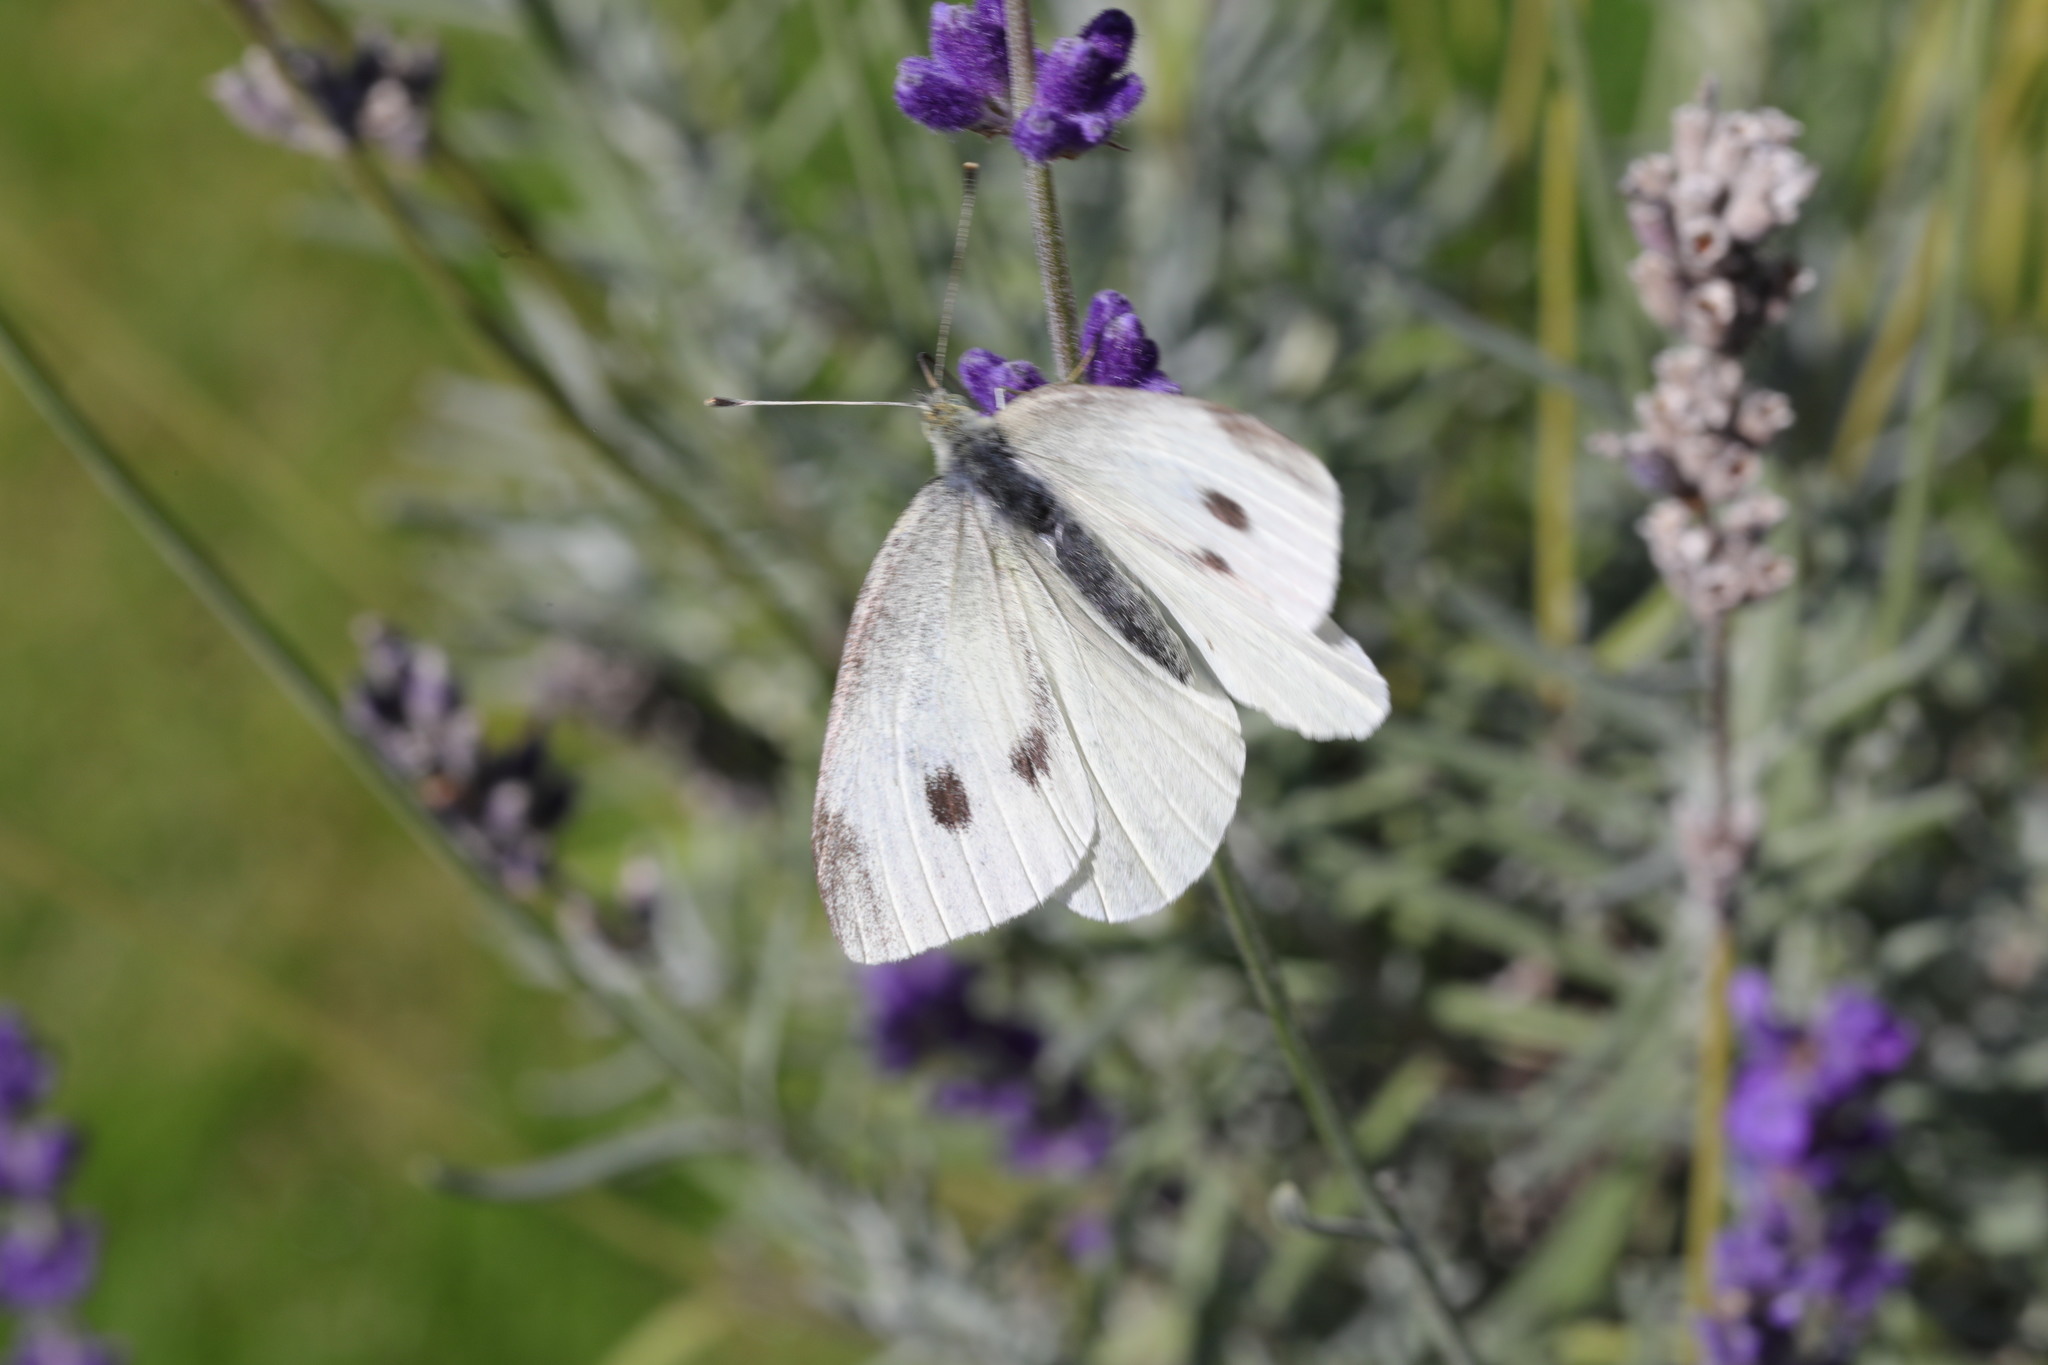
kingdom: Animalia
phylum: Arthropoda
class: Insecta
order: Lepidoptera
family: Pieridae
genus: Pieris
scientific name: Pieris rapae
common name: Small white
